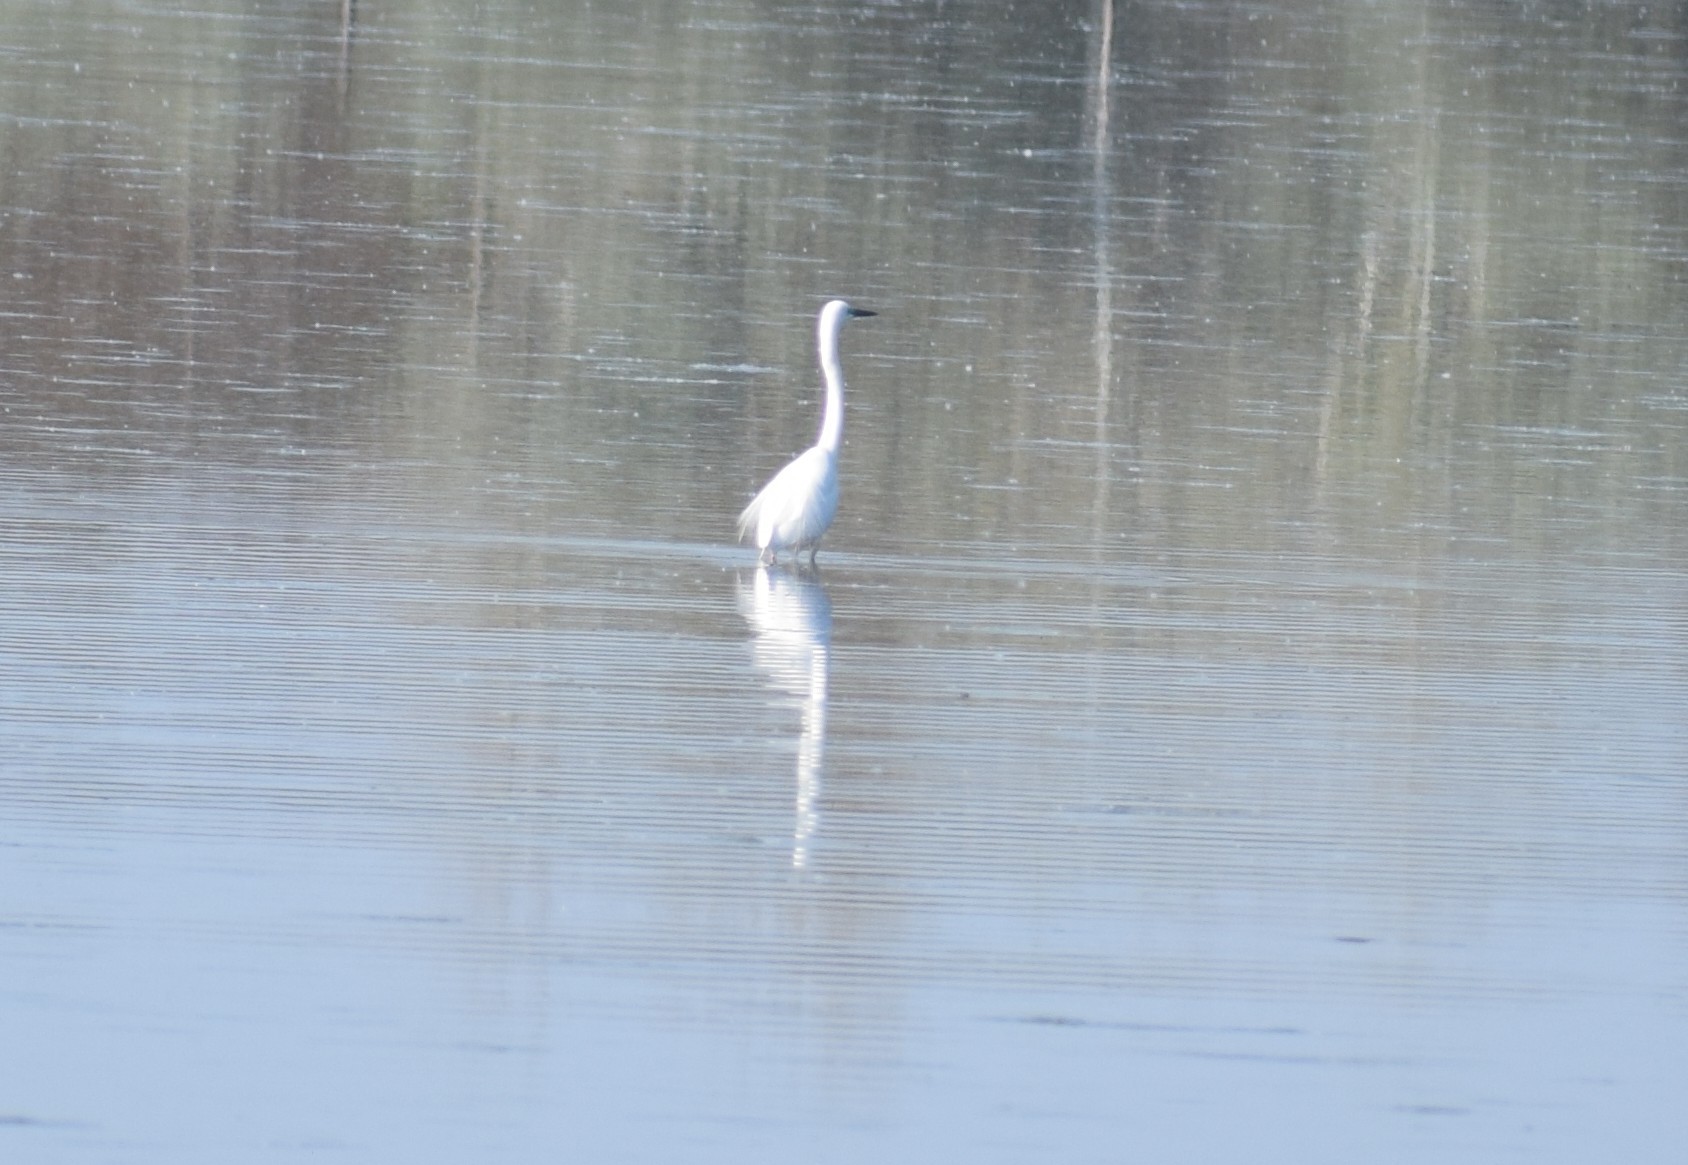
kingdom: Animalia
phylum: Chordata
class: Aves
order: Pelecaniformes
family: Ardeidae
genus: Egretta
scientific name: Egretta garzetta
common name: Little egret
